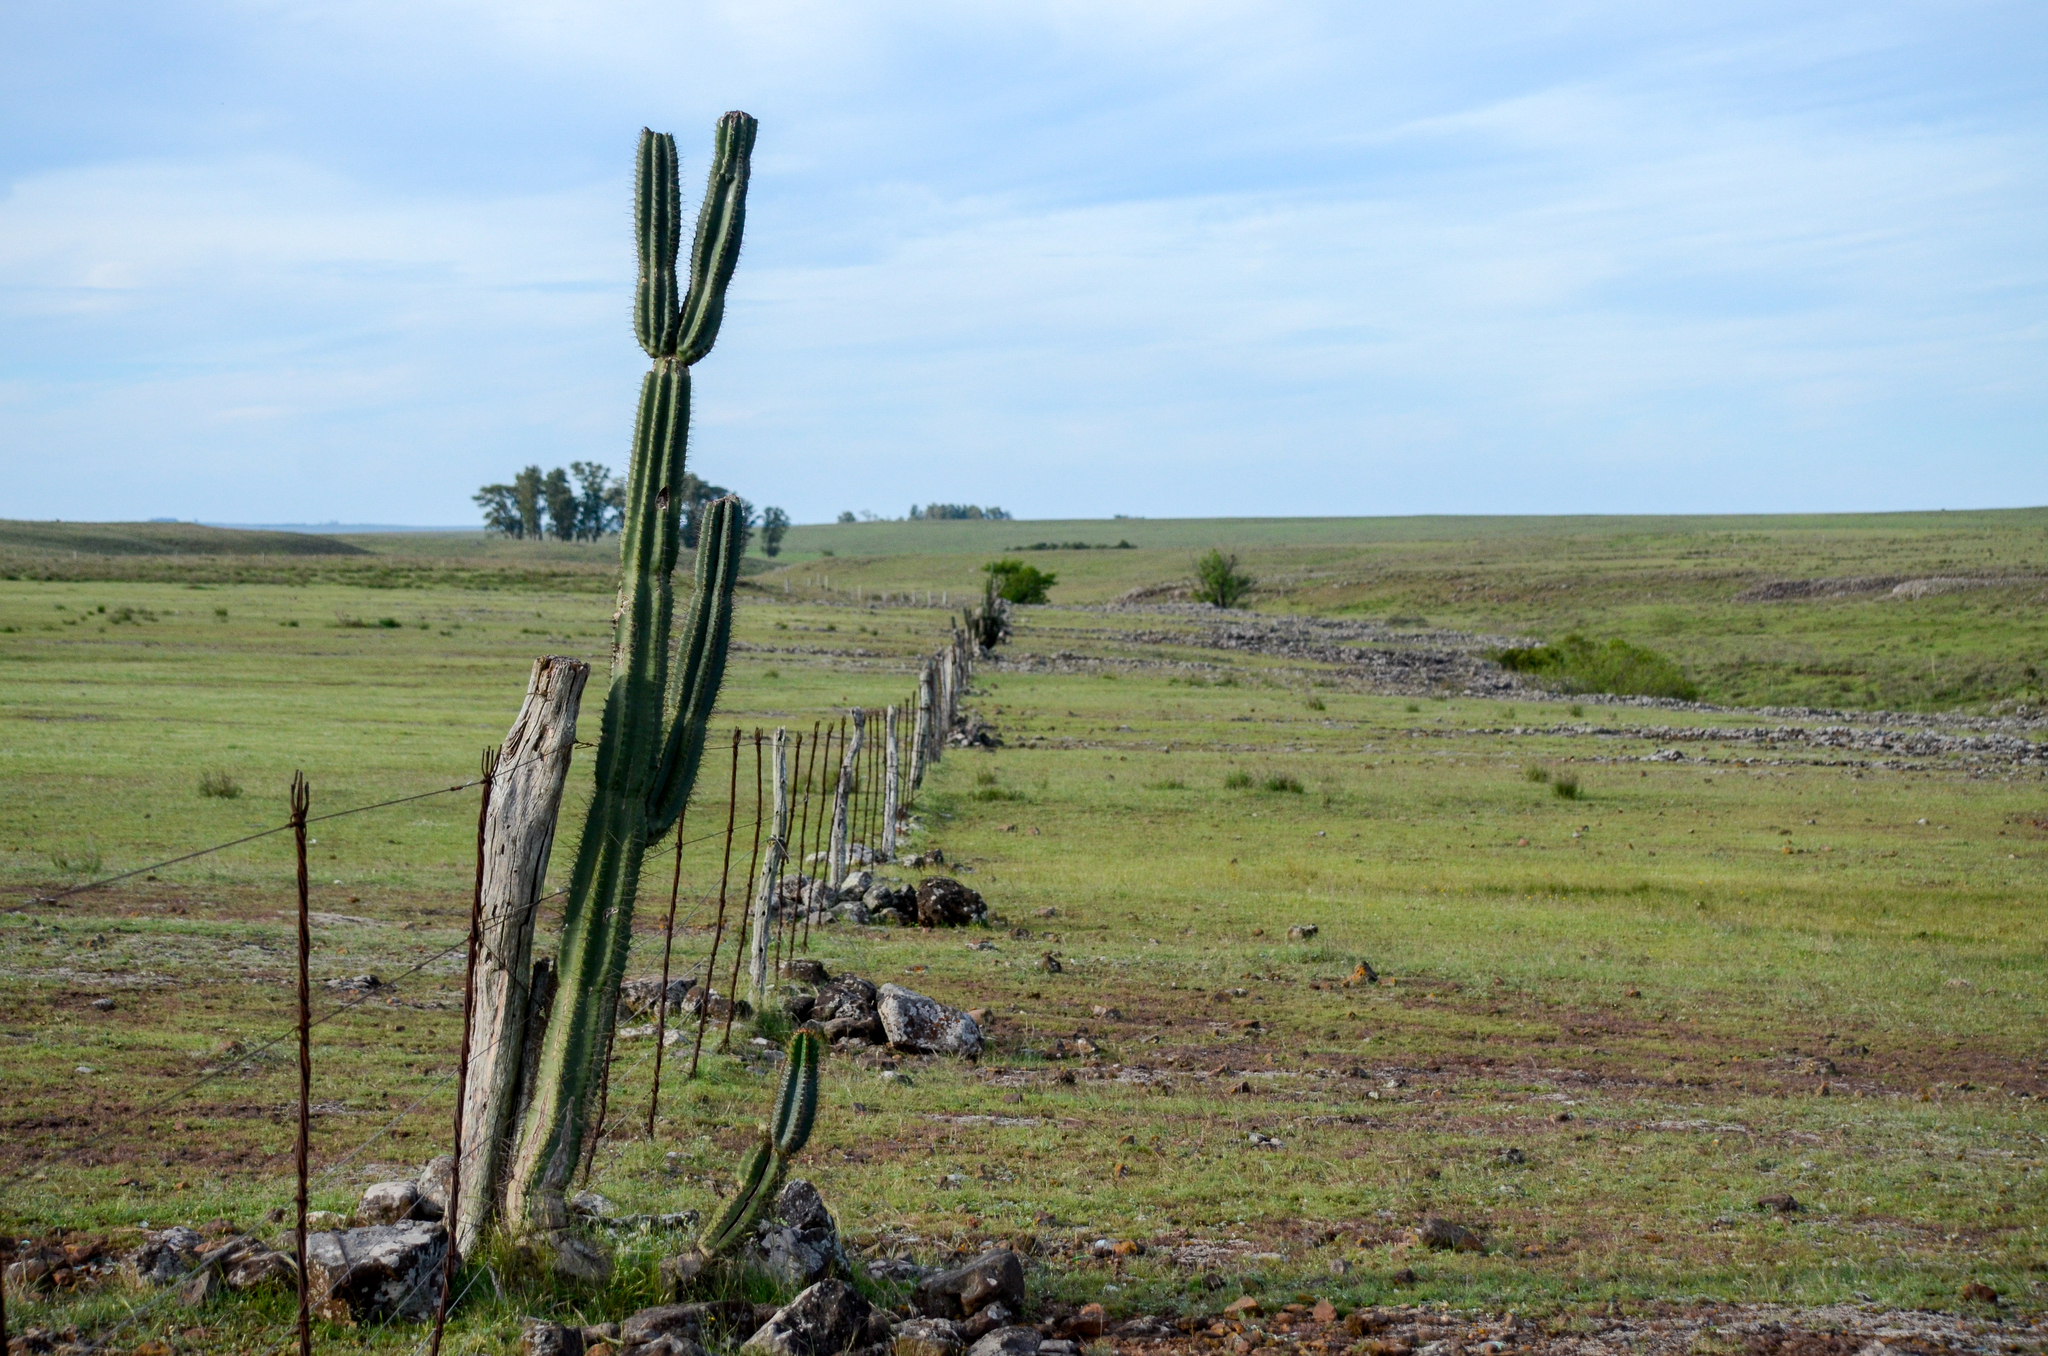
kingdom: Plantae
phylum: Tracheophyta
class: Magnoliopsida
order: Caryophyllales
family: Cactaceae
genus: Cereus
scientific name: Cereus hildmannianus
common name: Hedge cactus
